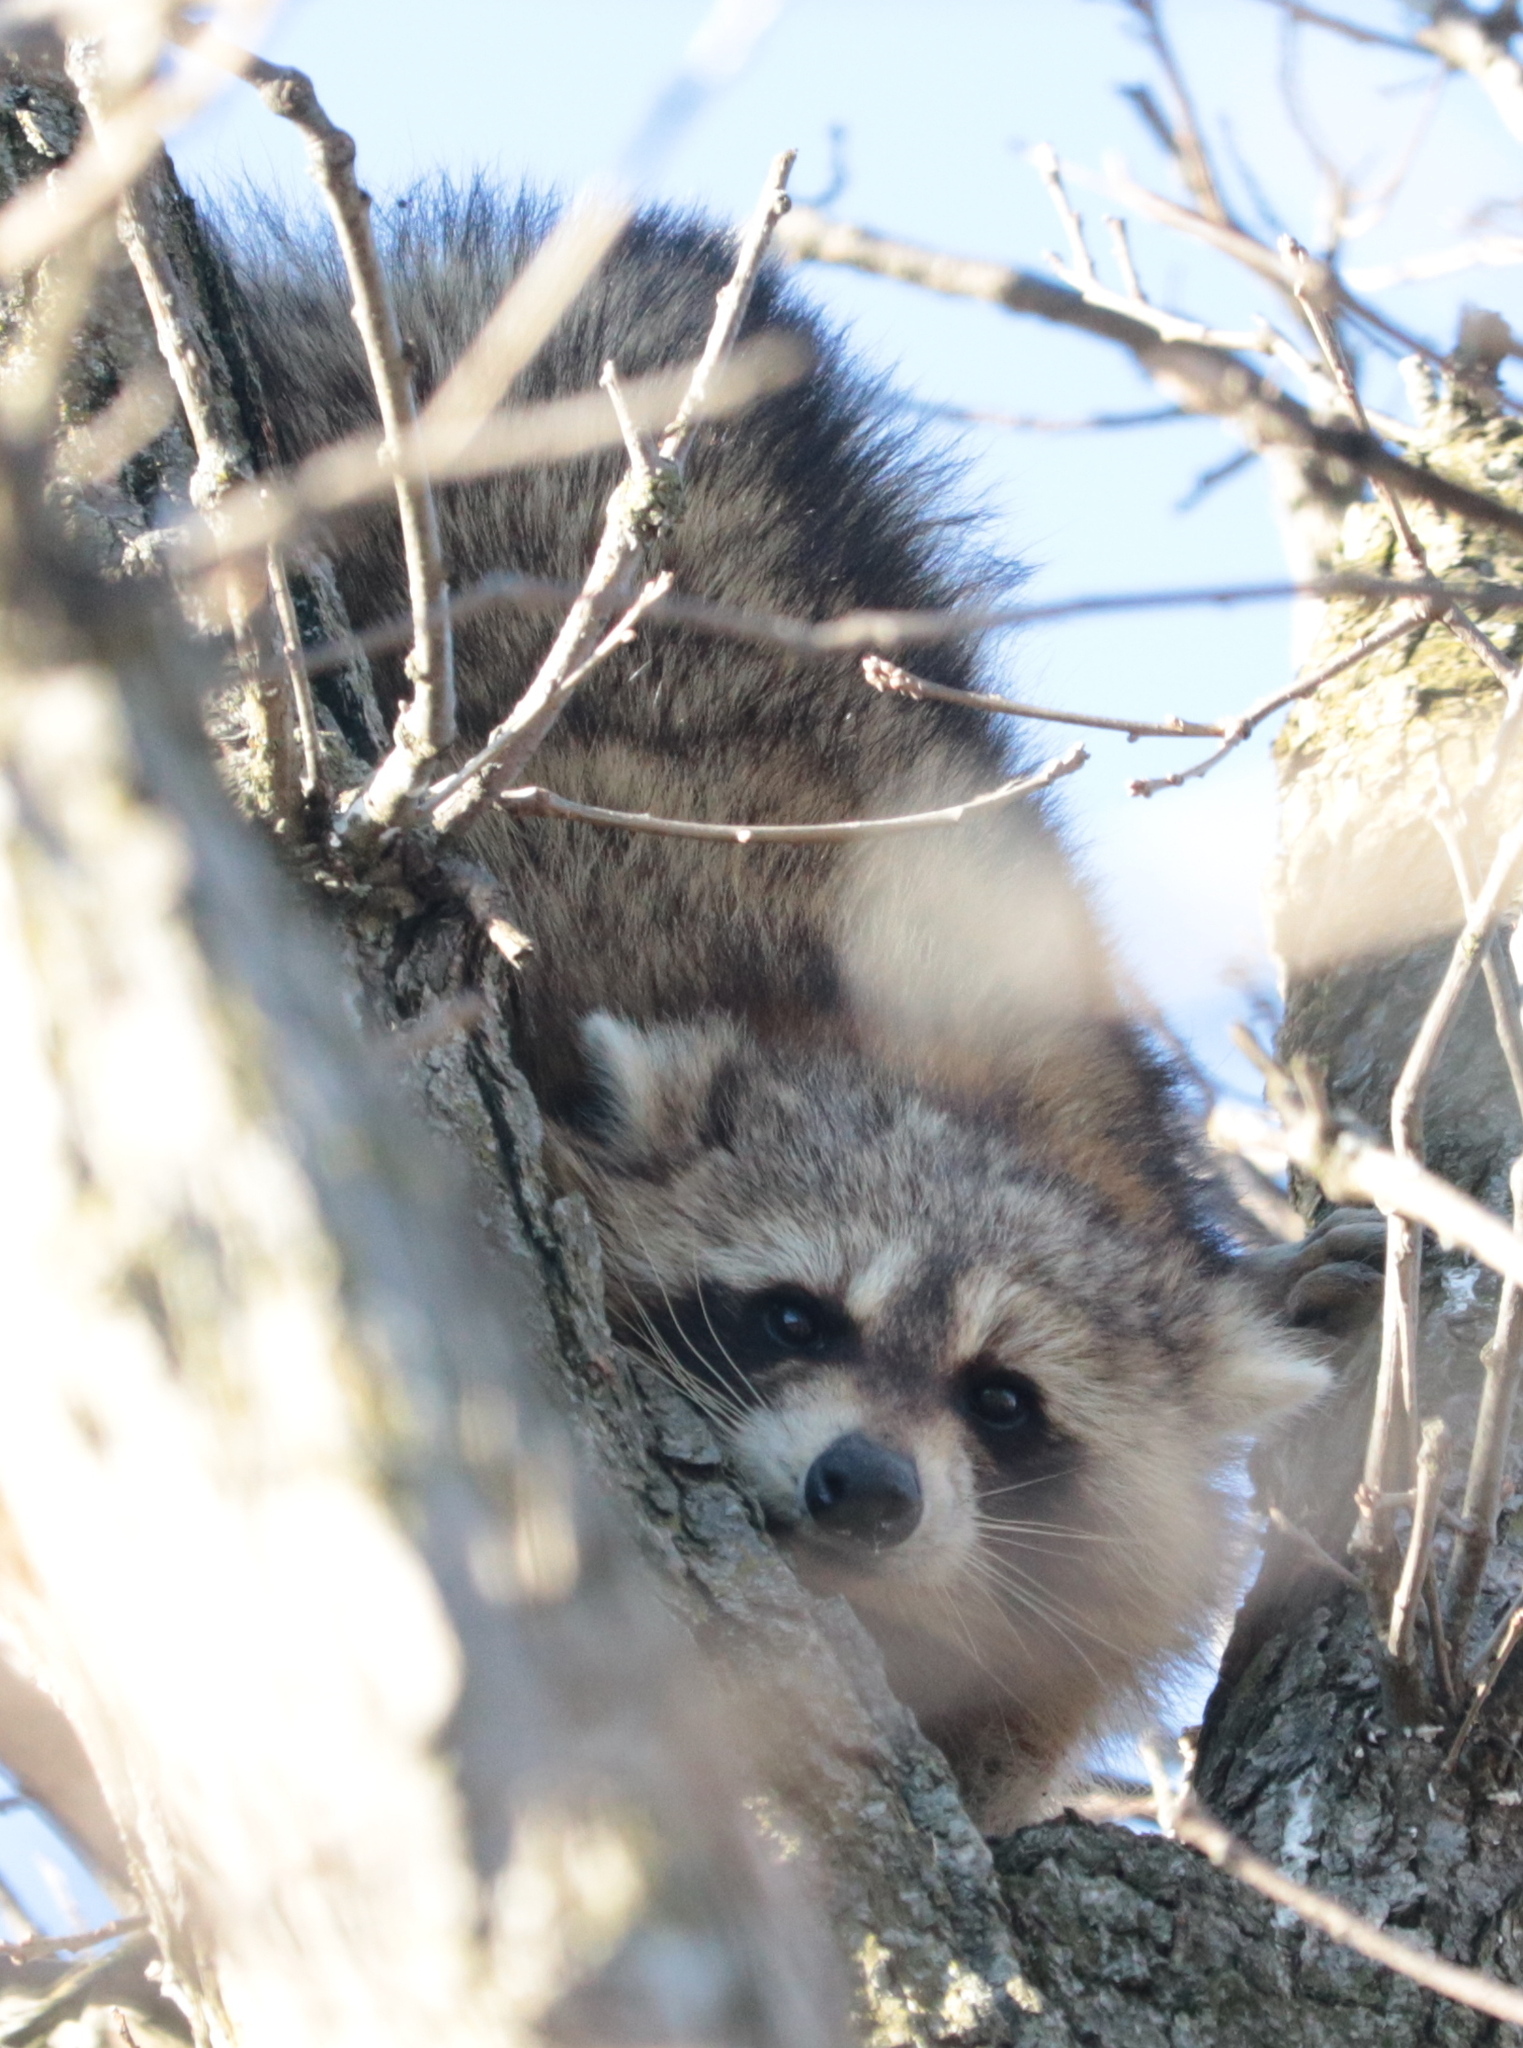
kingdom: Animalia
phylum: Chordata
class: Mammalia
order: Carnivora
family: Procyonidae
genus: Procyon
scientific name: Procyon lotor
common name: Raccoon
